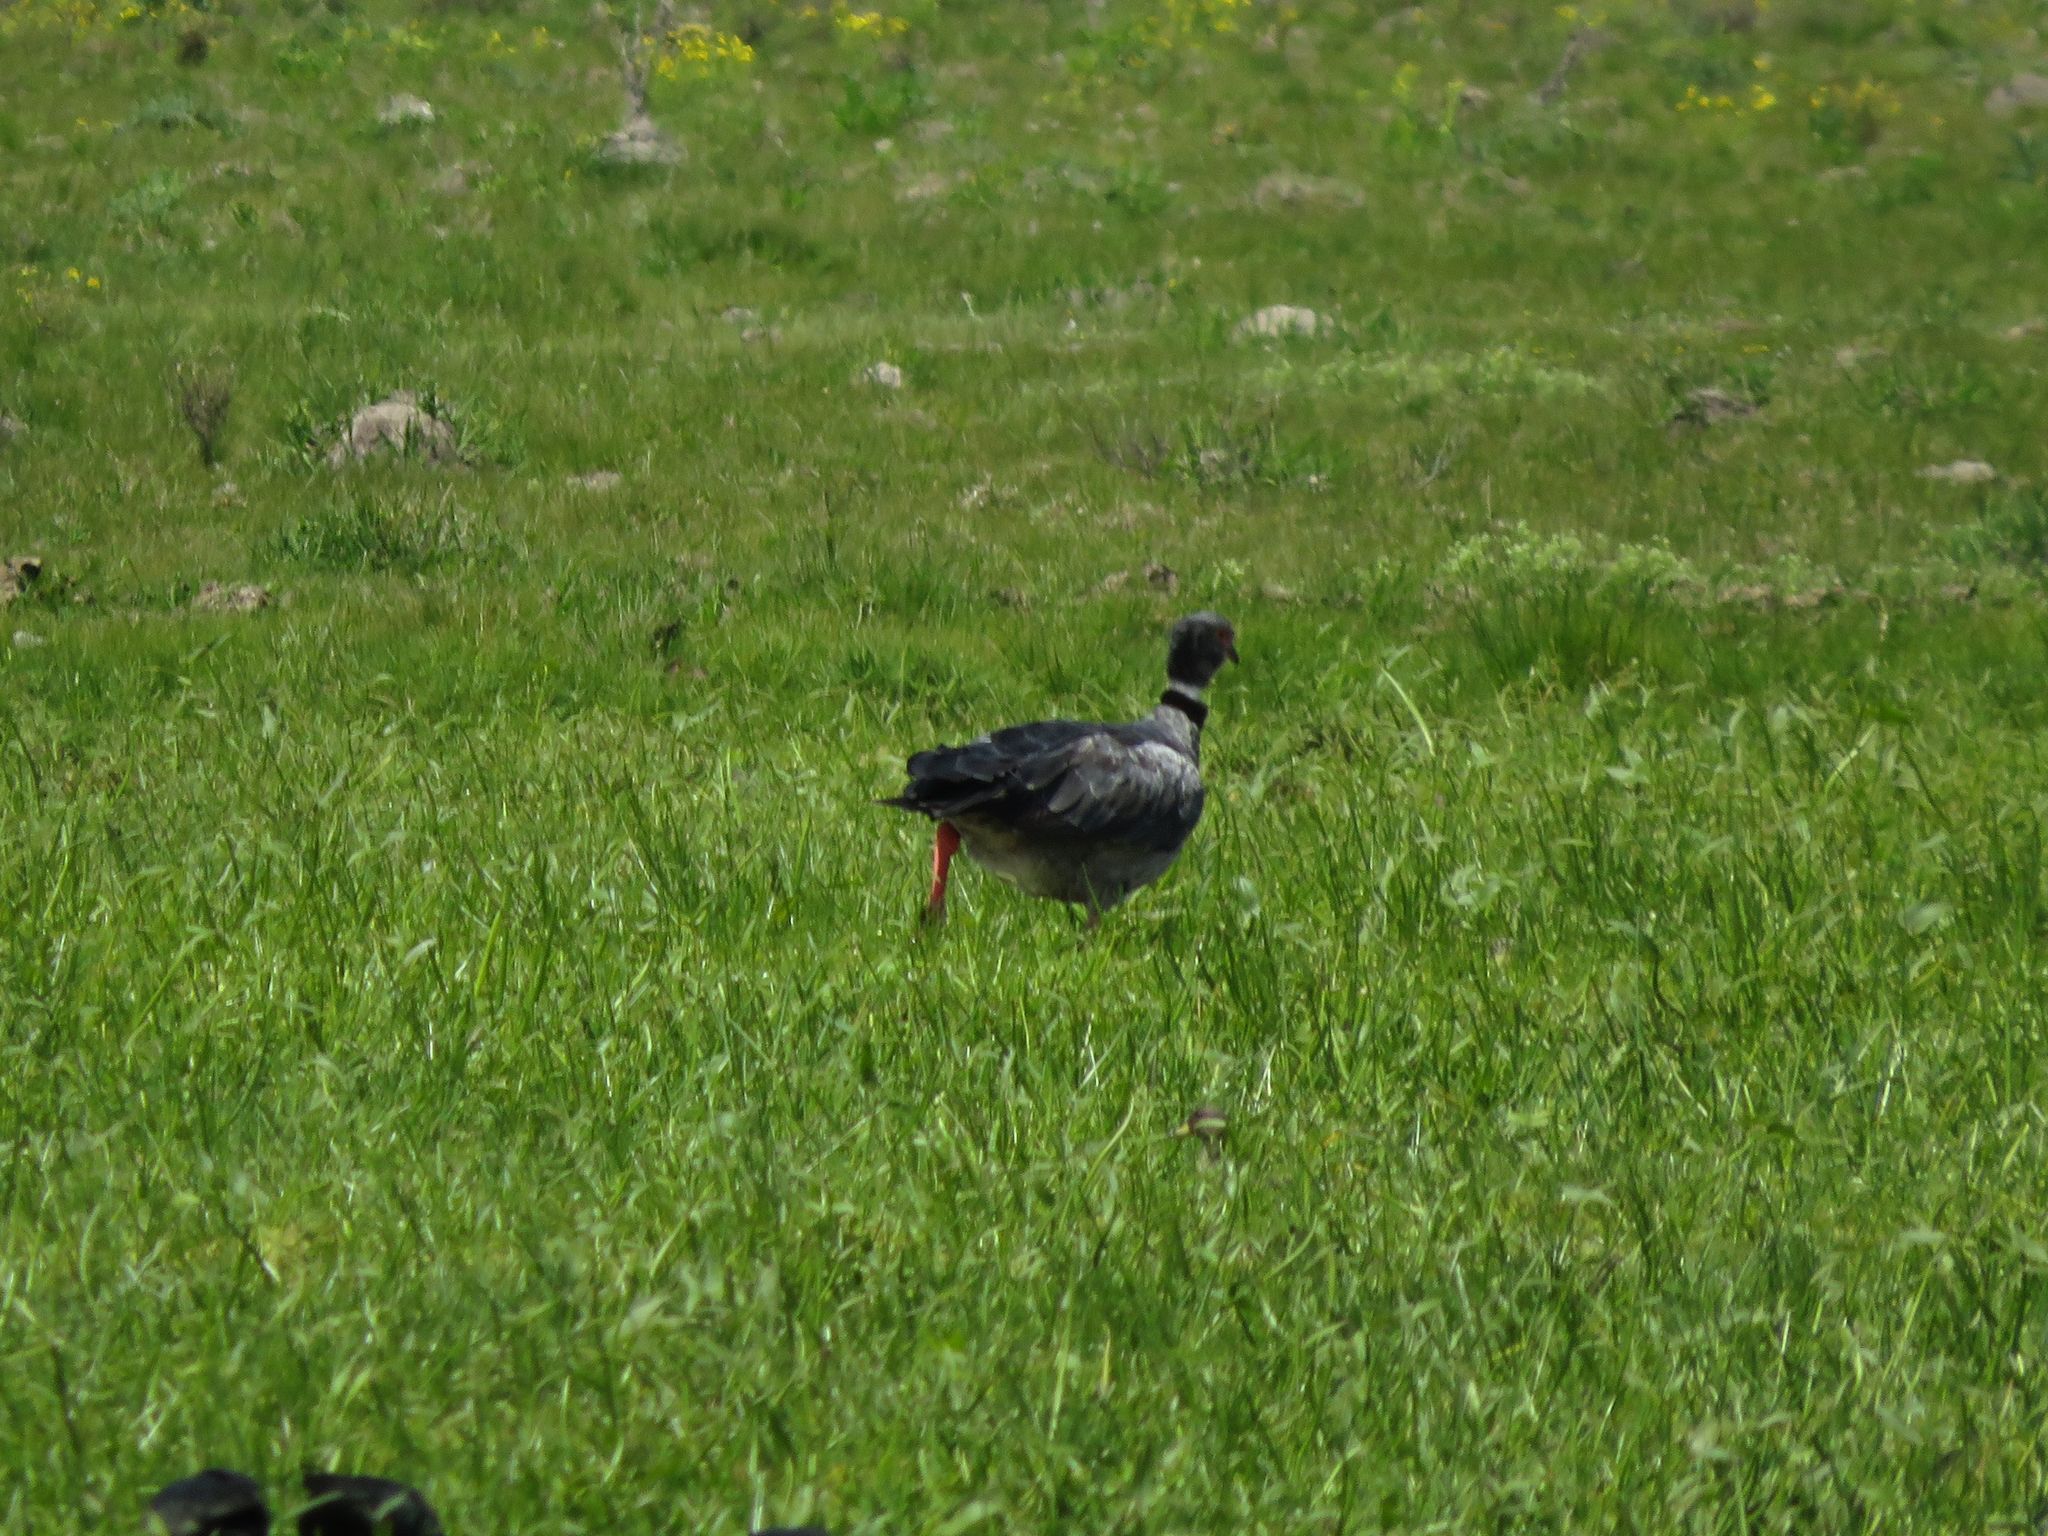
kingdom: Animalia
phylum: Chordata
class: Aves
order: Anseriformes
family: Anhimidae
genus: Chauna
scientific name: Chauna torquata
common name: Southern screamer
